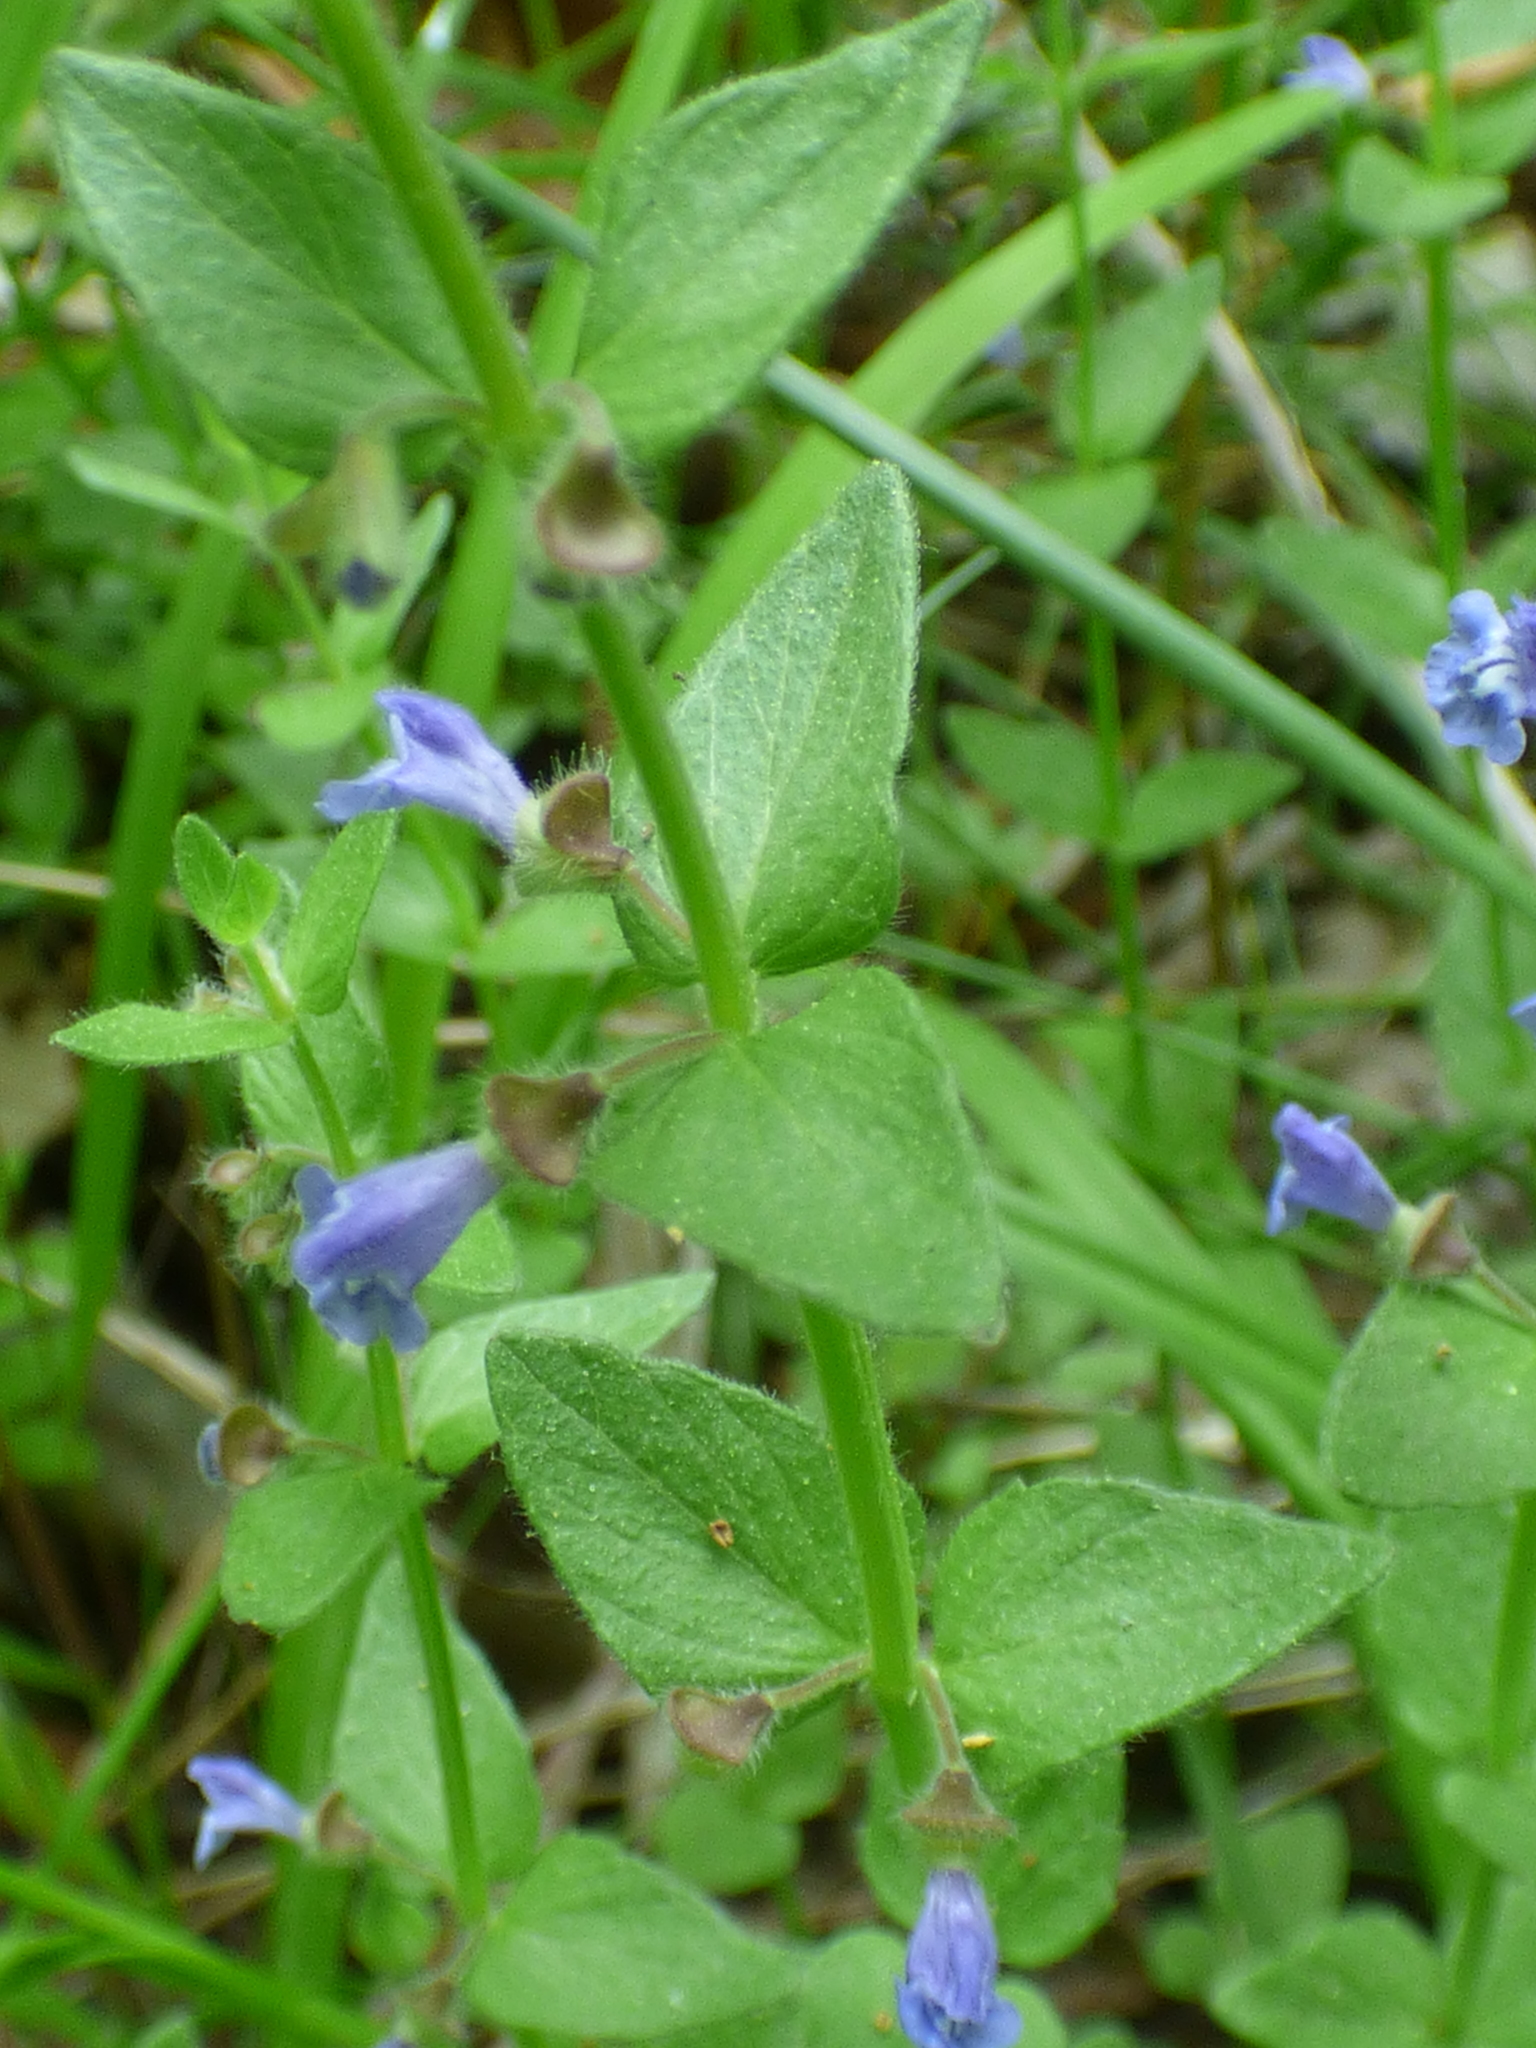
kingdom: Plantae
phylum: Tracheophyta
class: Magnoliopsida
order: Lamiales
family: Lamiaceae
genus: Scutellaria
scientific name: Scutellaria parvula
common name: Little scullcap
